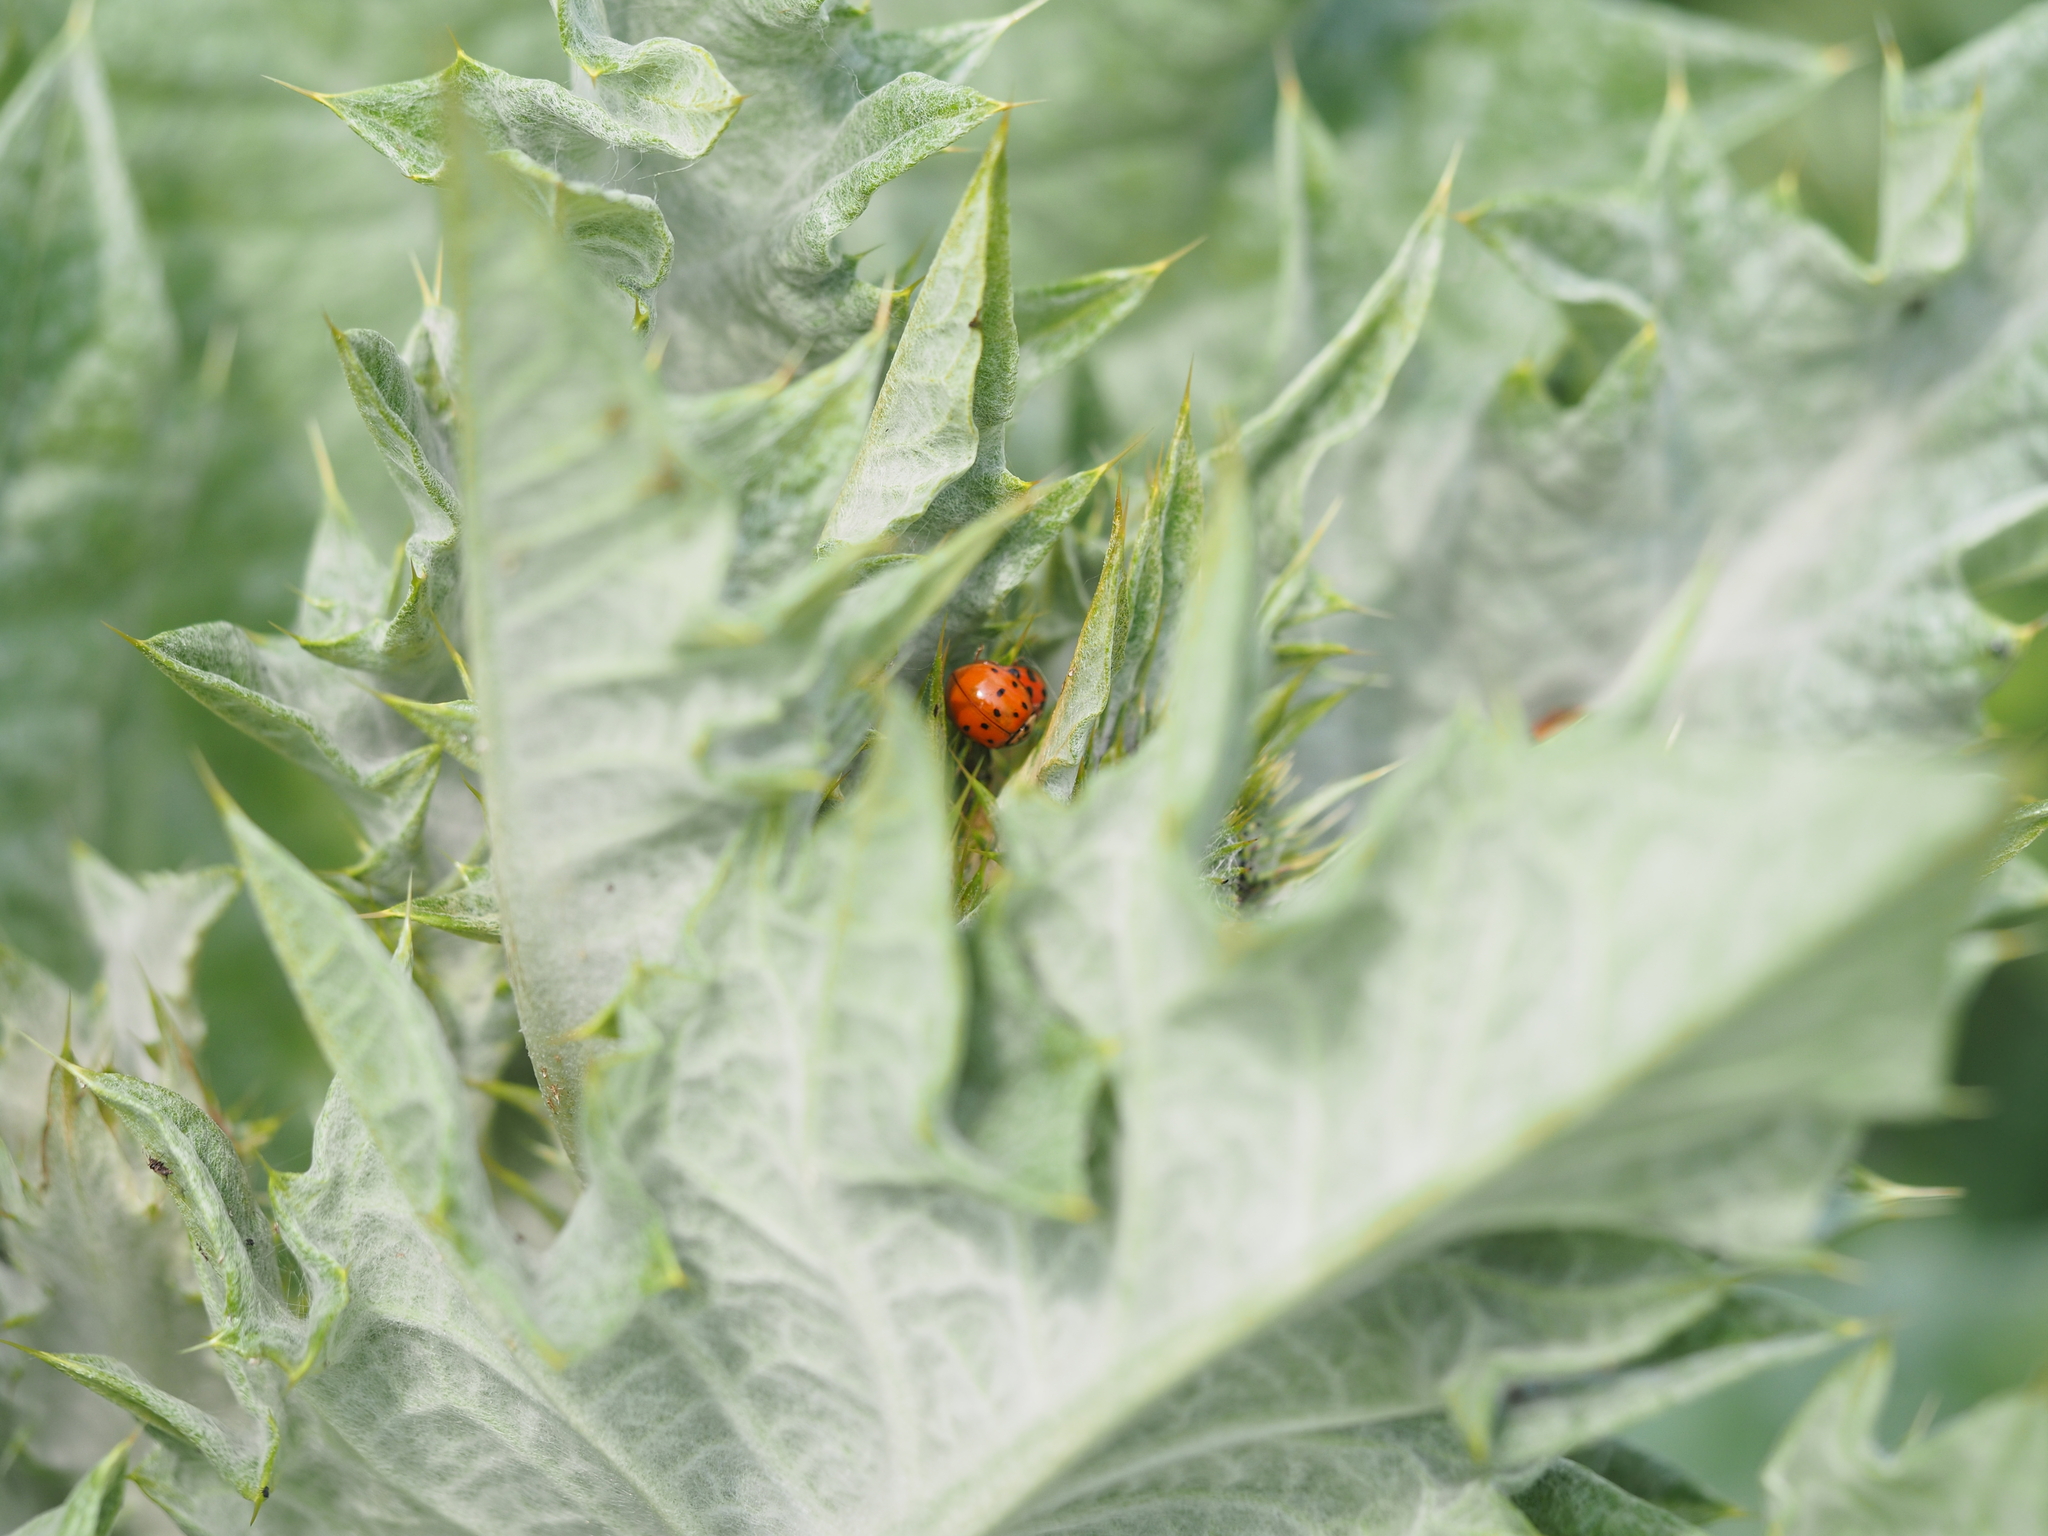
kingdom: Animalia
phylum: Arthropoda
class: Insecta
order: Coleoptera
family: Coccinellidae
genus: Harmonia
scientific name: Harmonia axyridis
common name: Harlequin ladybird
